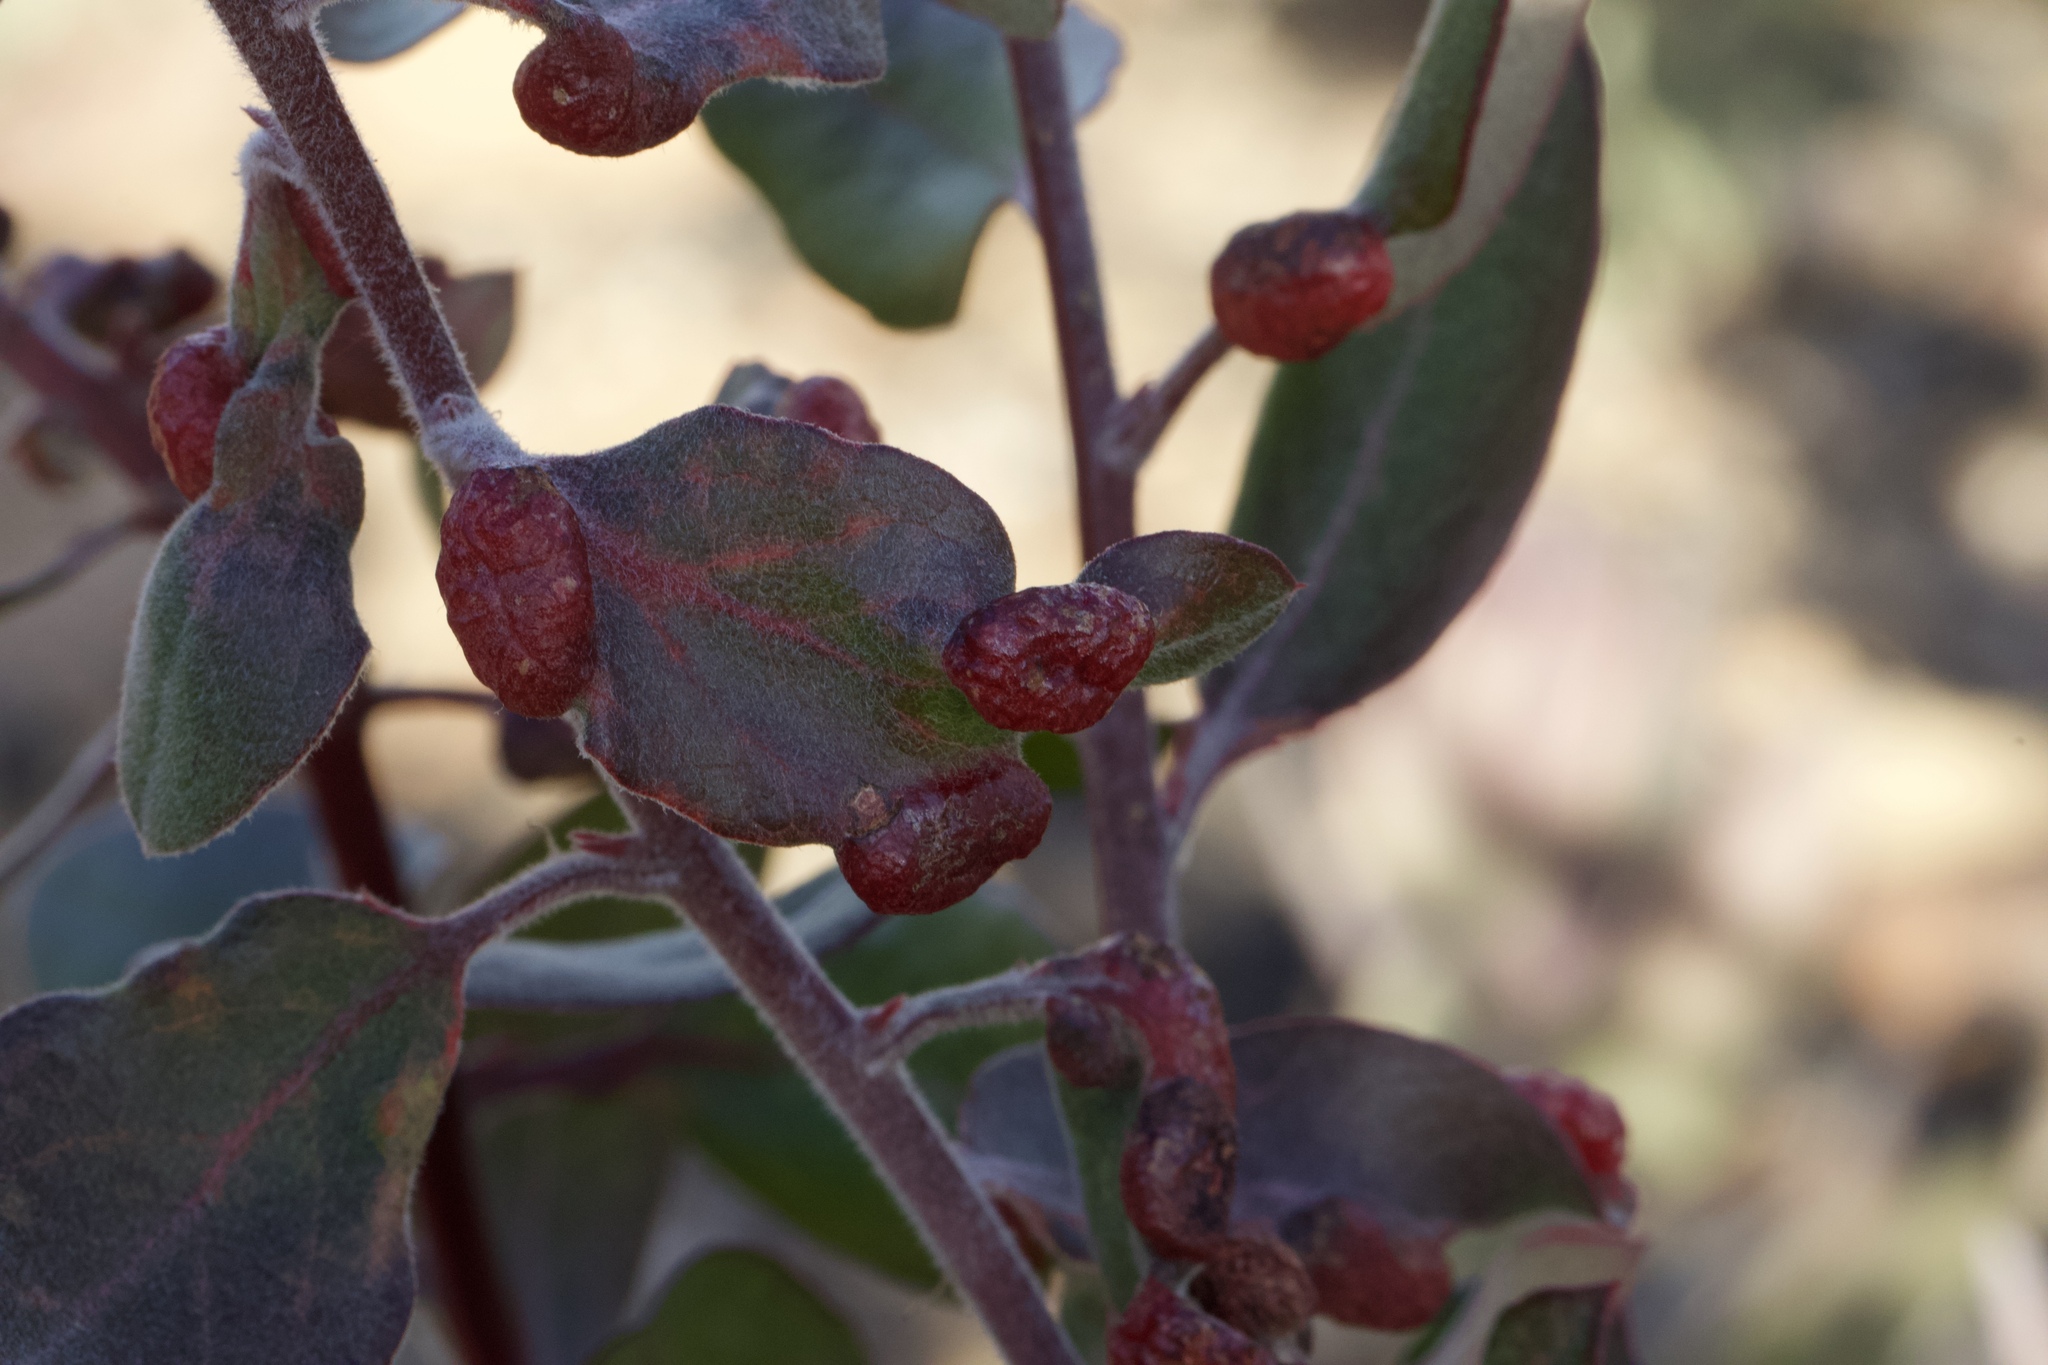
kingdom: Animalia
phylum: Arthropoda
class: Insecta
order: Hemiptera
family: Aphididae
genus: Tamalia
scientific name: Tamalia coweni
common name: Manzanita leafgall aphid
